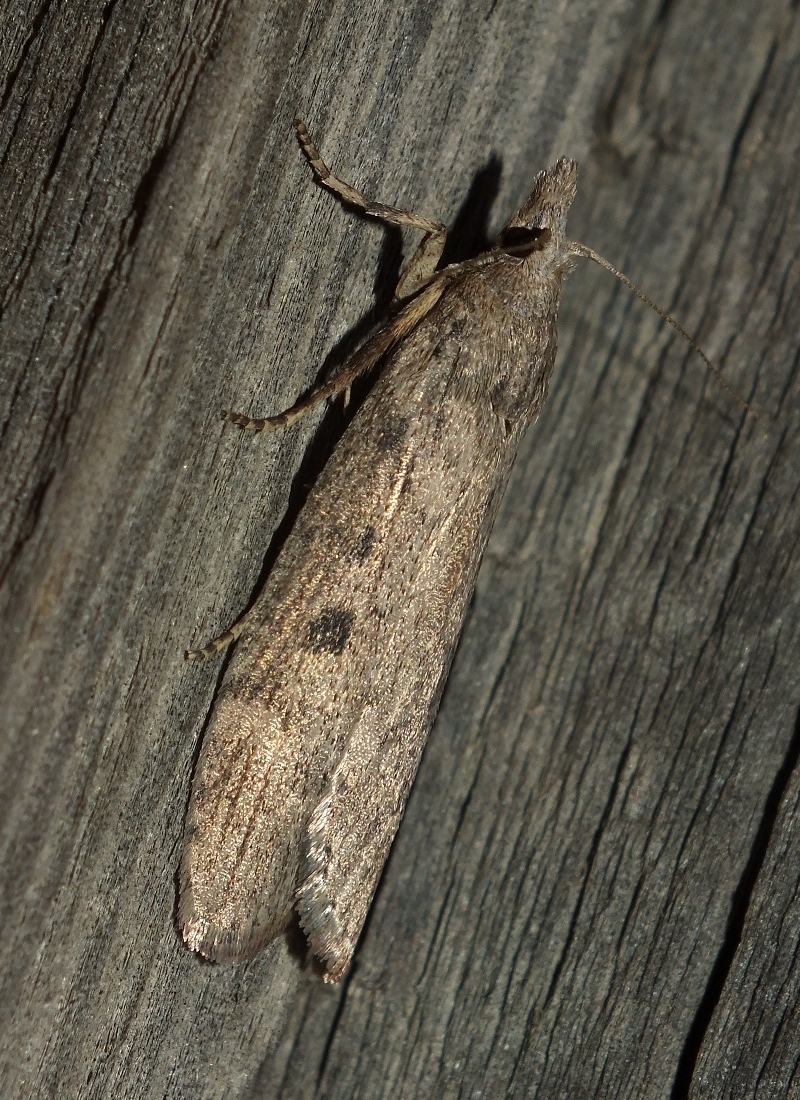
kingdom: Animalia
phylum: Arthropoda
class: Insecta
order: Lepidoptera
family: Pyralidae
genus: Lamoria
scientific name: Lamoria anella
